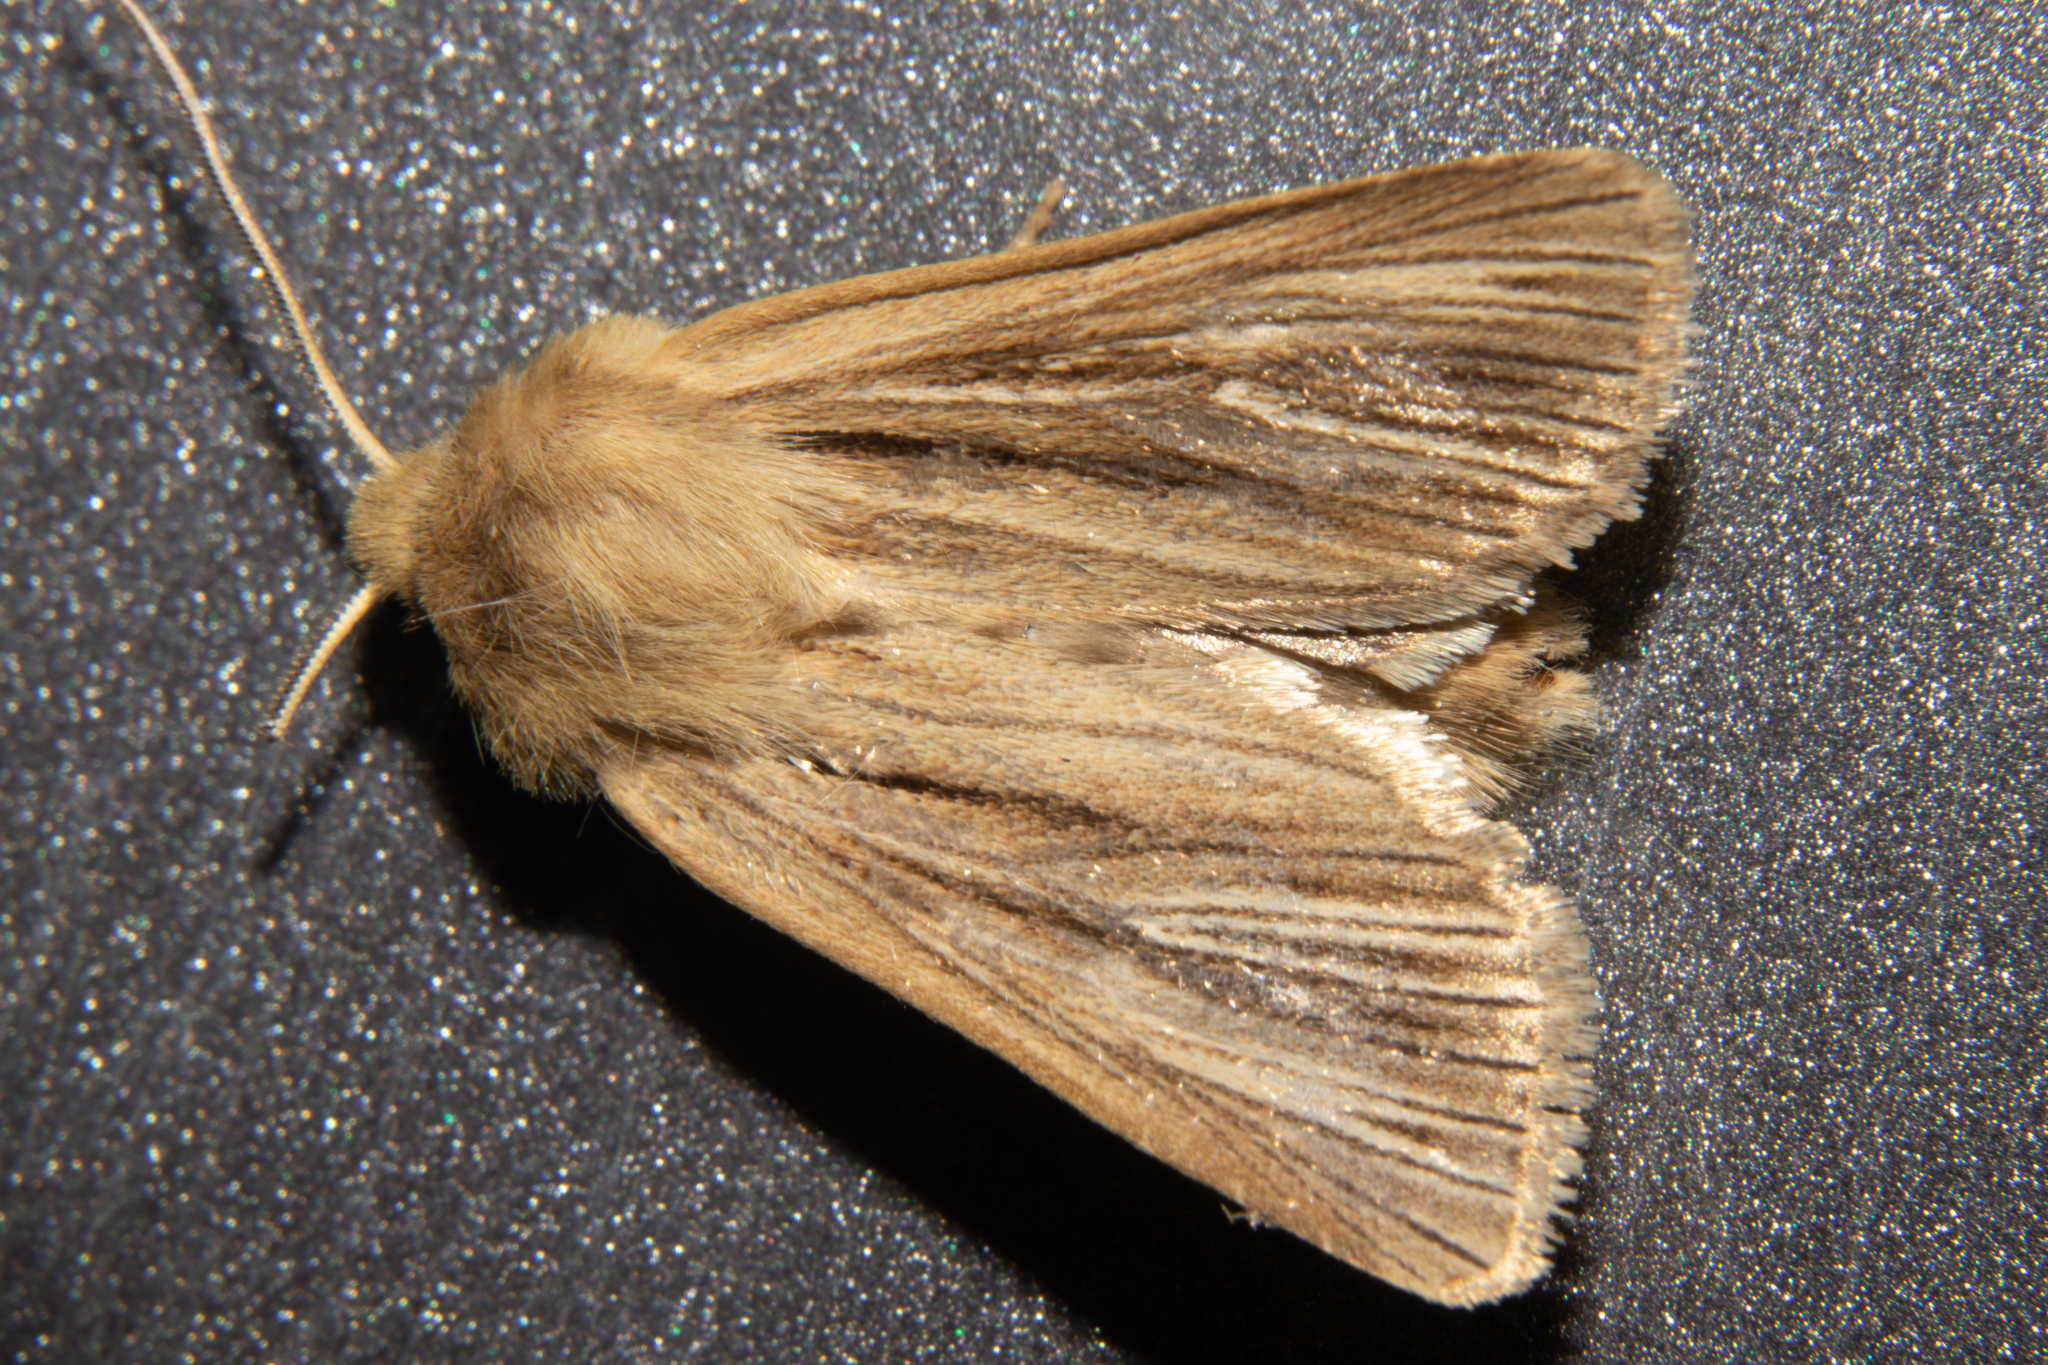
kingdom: Animalia
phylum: Arthropoda
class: Insecta
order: Lepidoptera
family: Noctuidae
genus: Ichneutica
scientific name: Ichneutica
